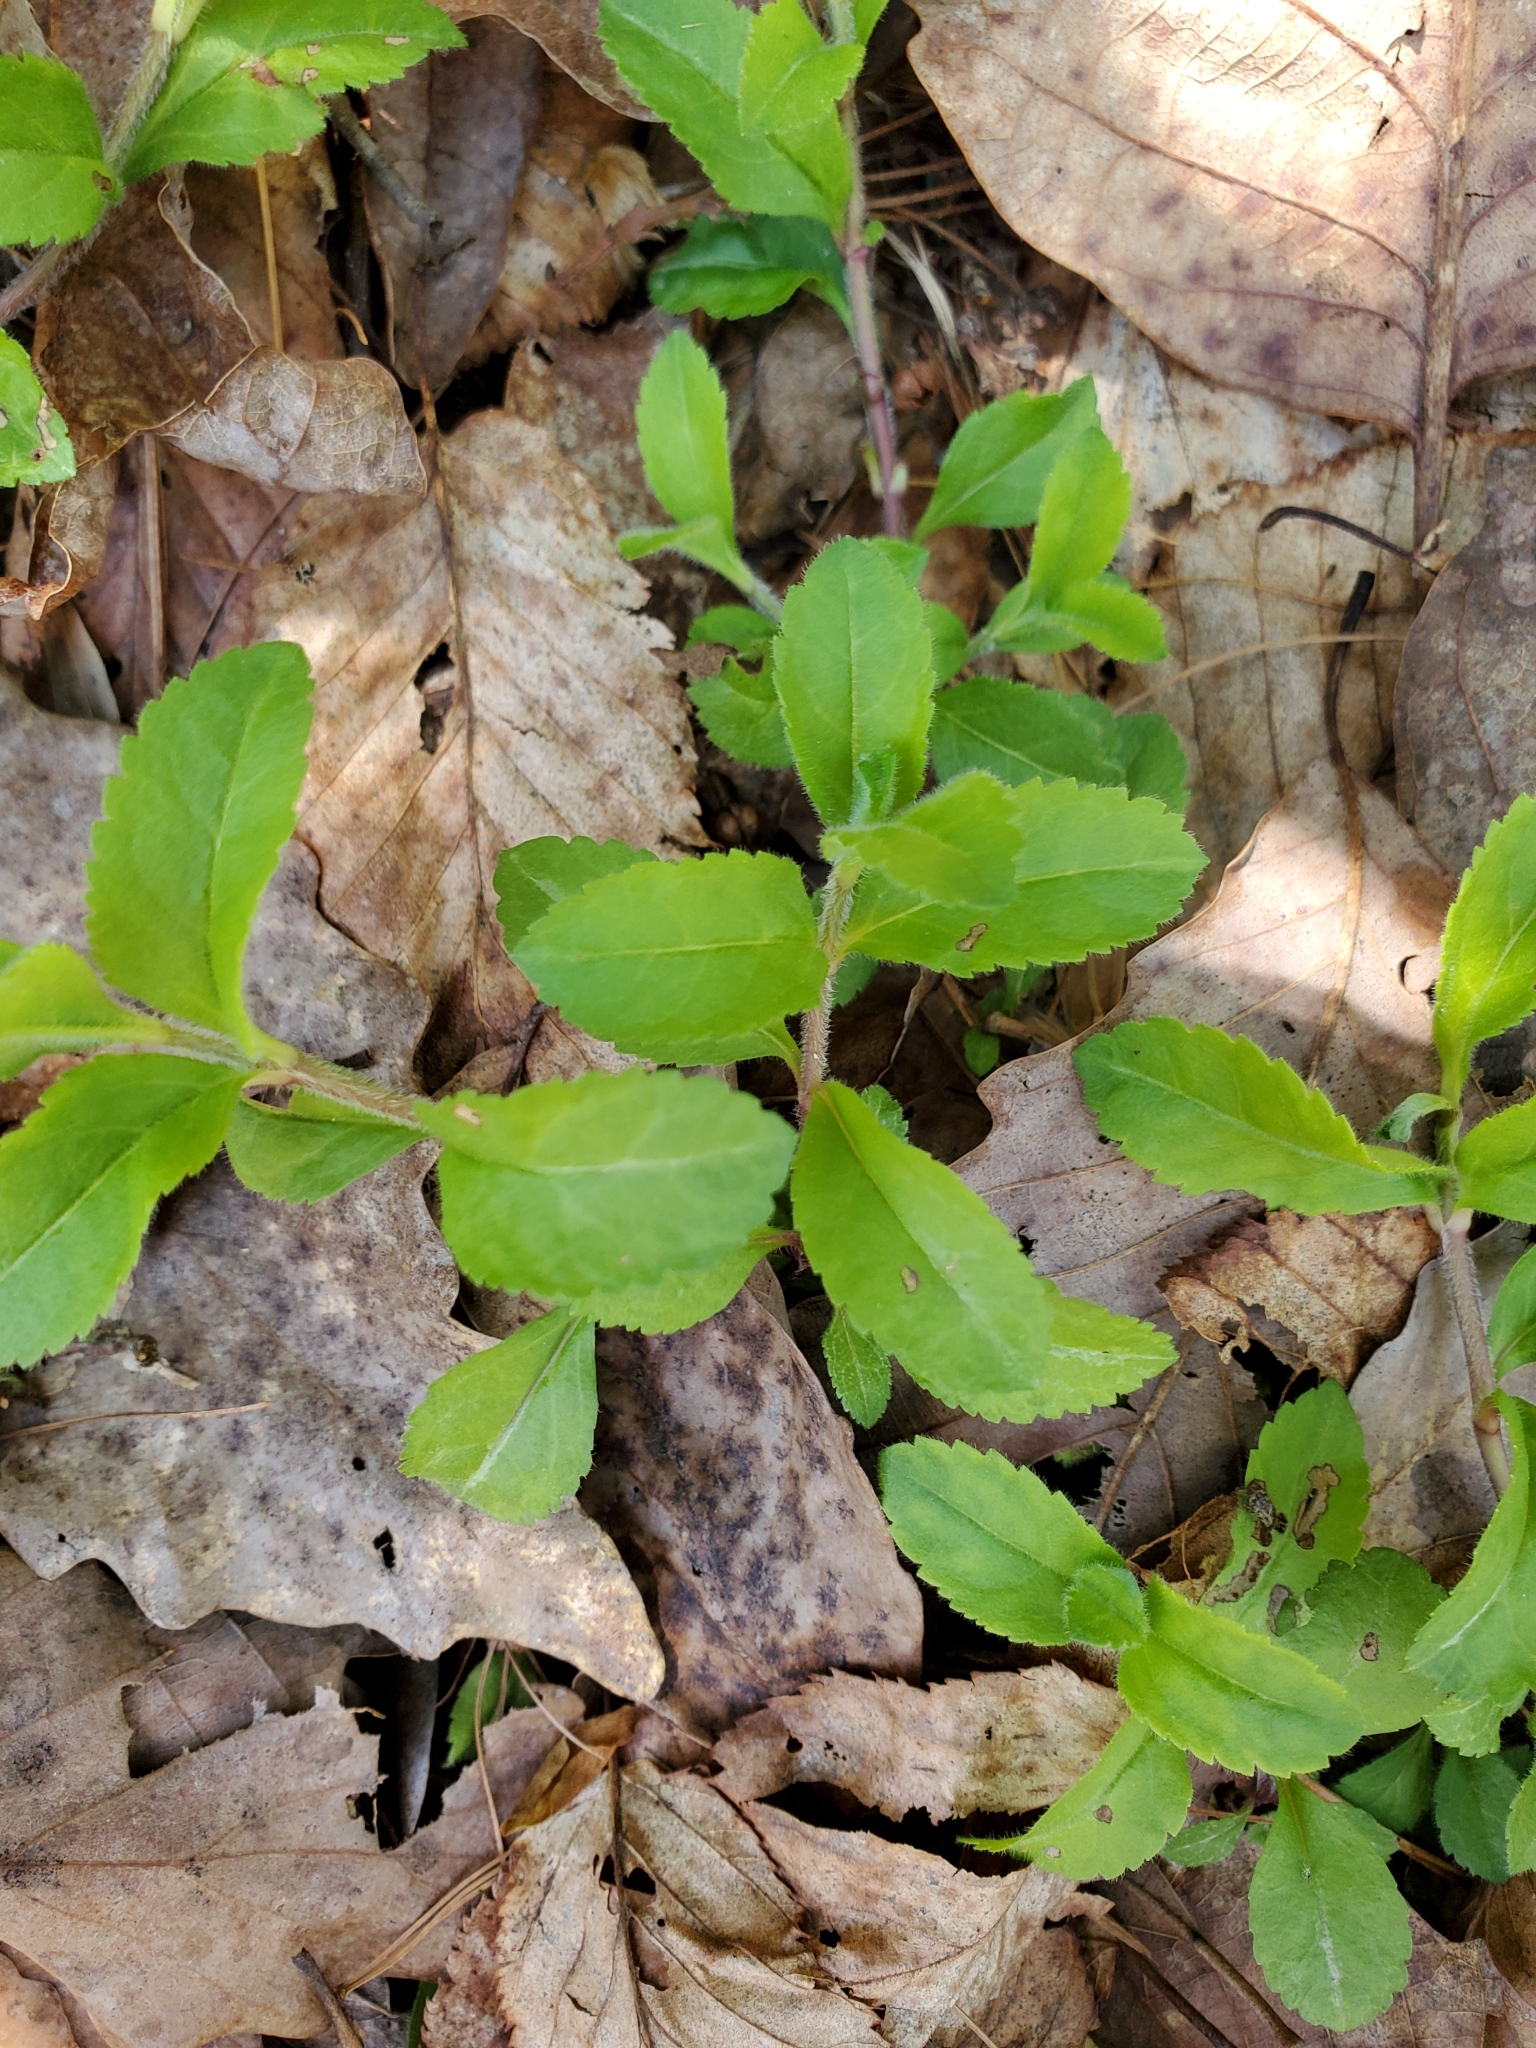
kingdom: Plantae
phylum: Tracheophyta
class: Magnoliopsida
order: Lamiales
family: Plantaginaceae
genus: Veronica
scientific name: Veronica officinalis
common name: Common speedwell
